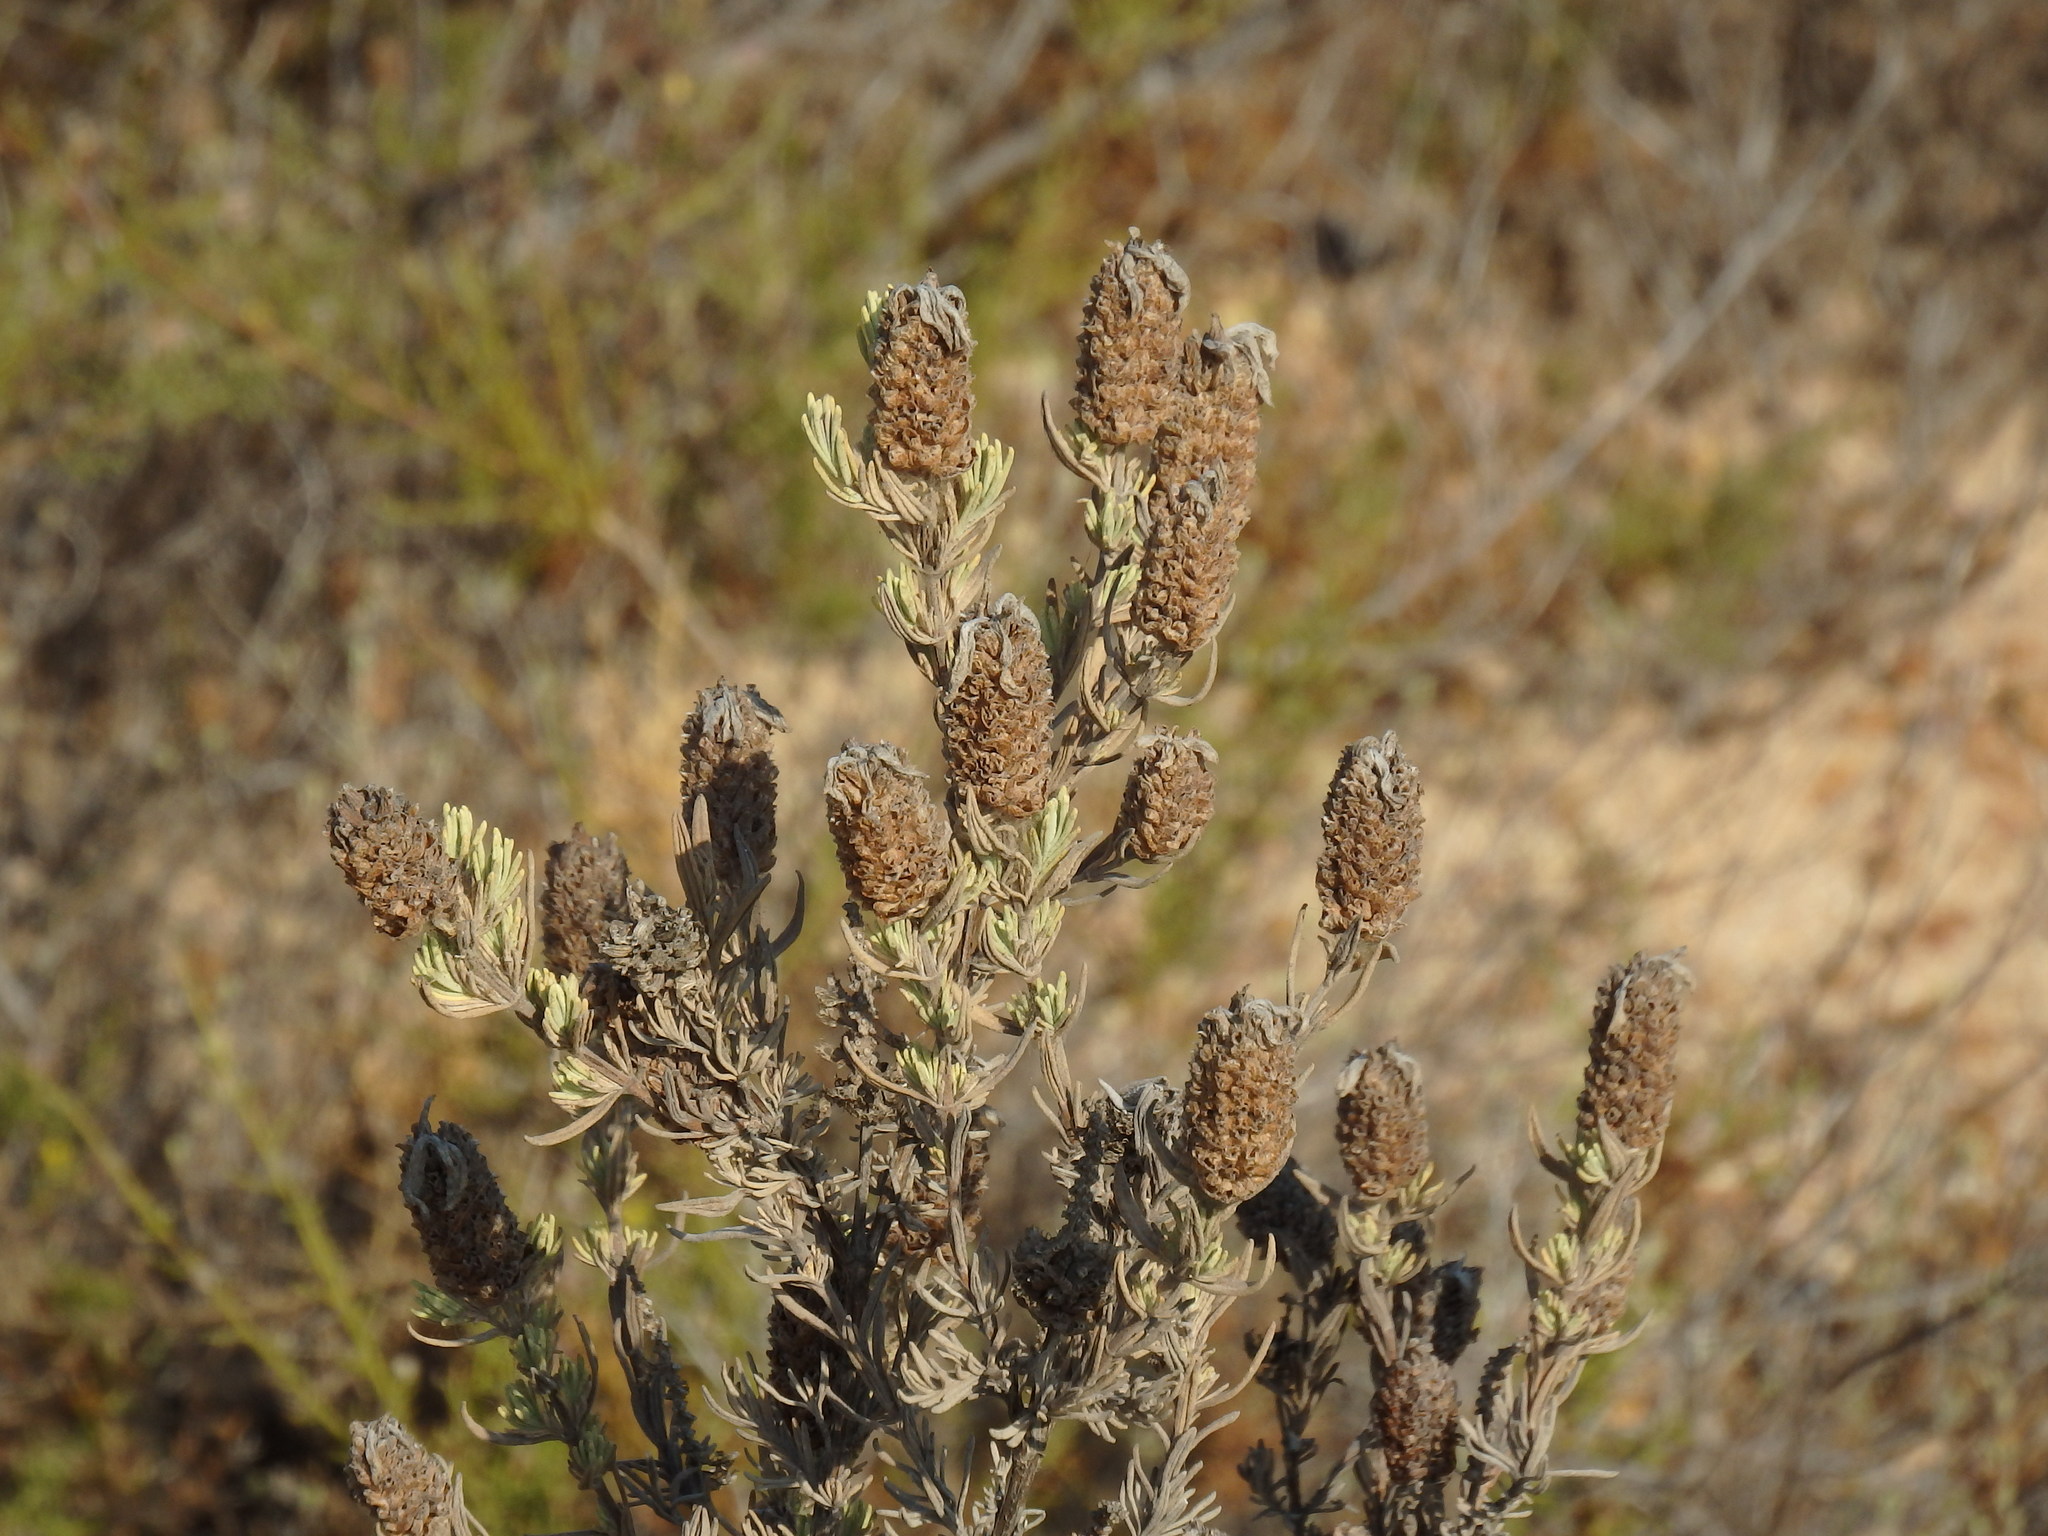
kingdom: Plantae
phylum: Tracheophyta
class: Magnoliopsida
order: Lamiales
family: Lamiaceae
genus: Lavandula
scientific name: Lavandula stoechas
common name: French lavender
